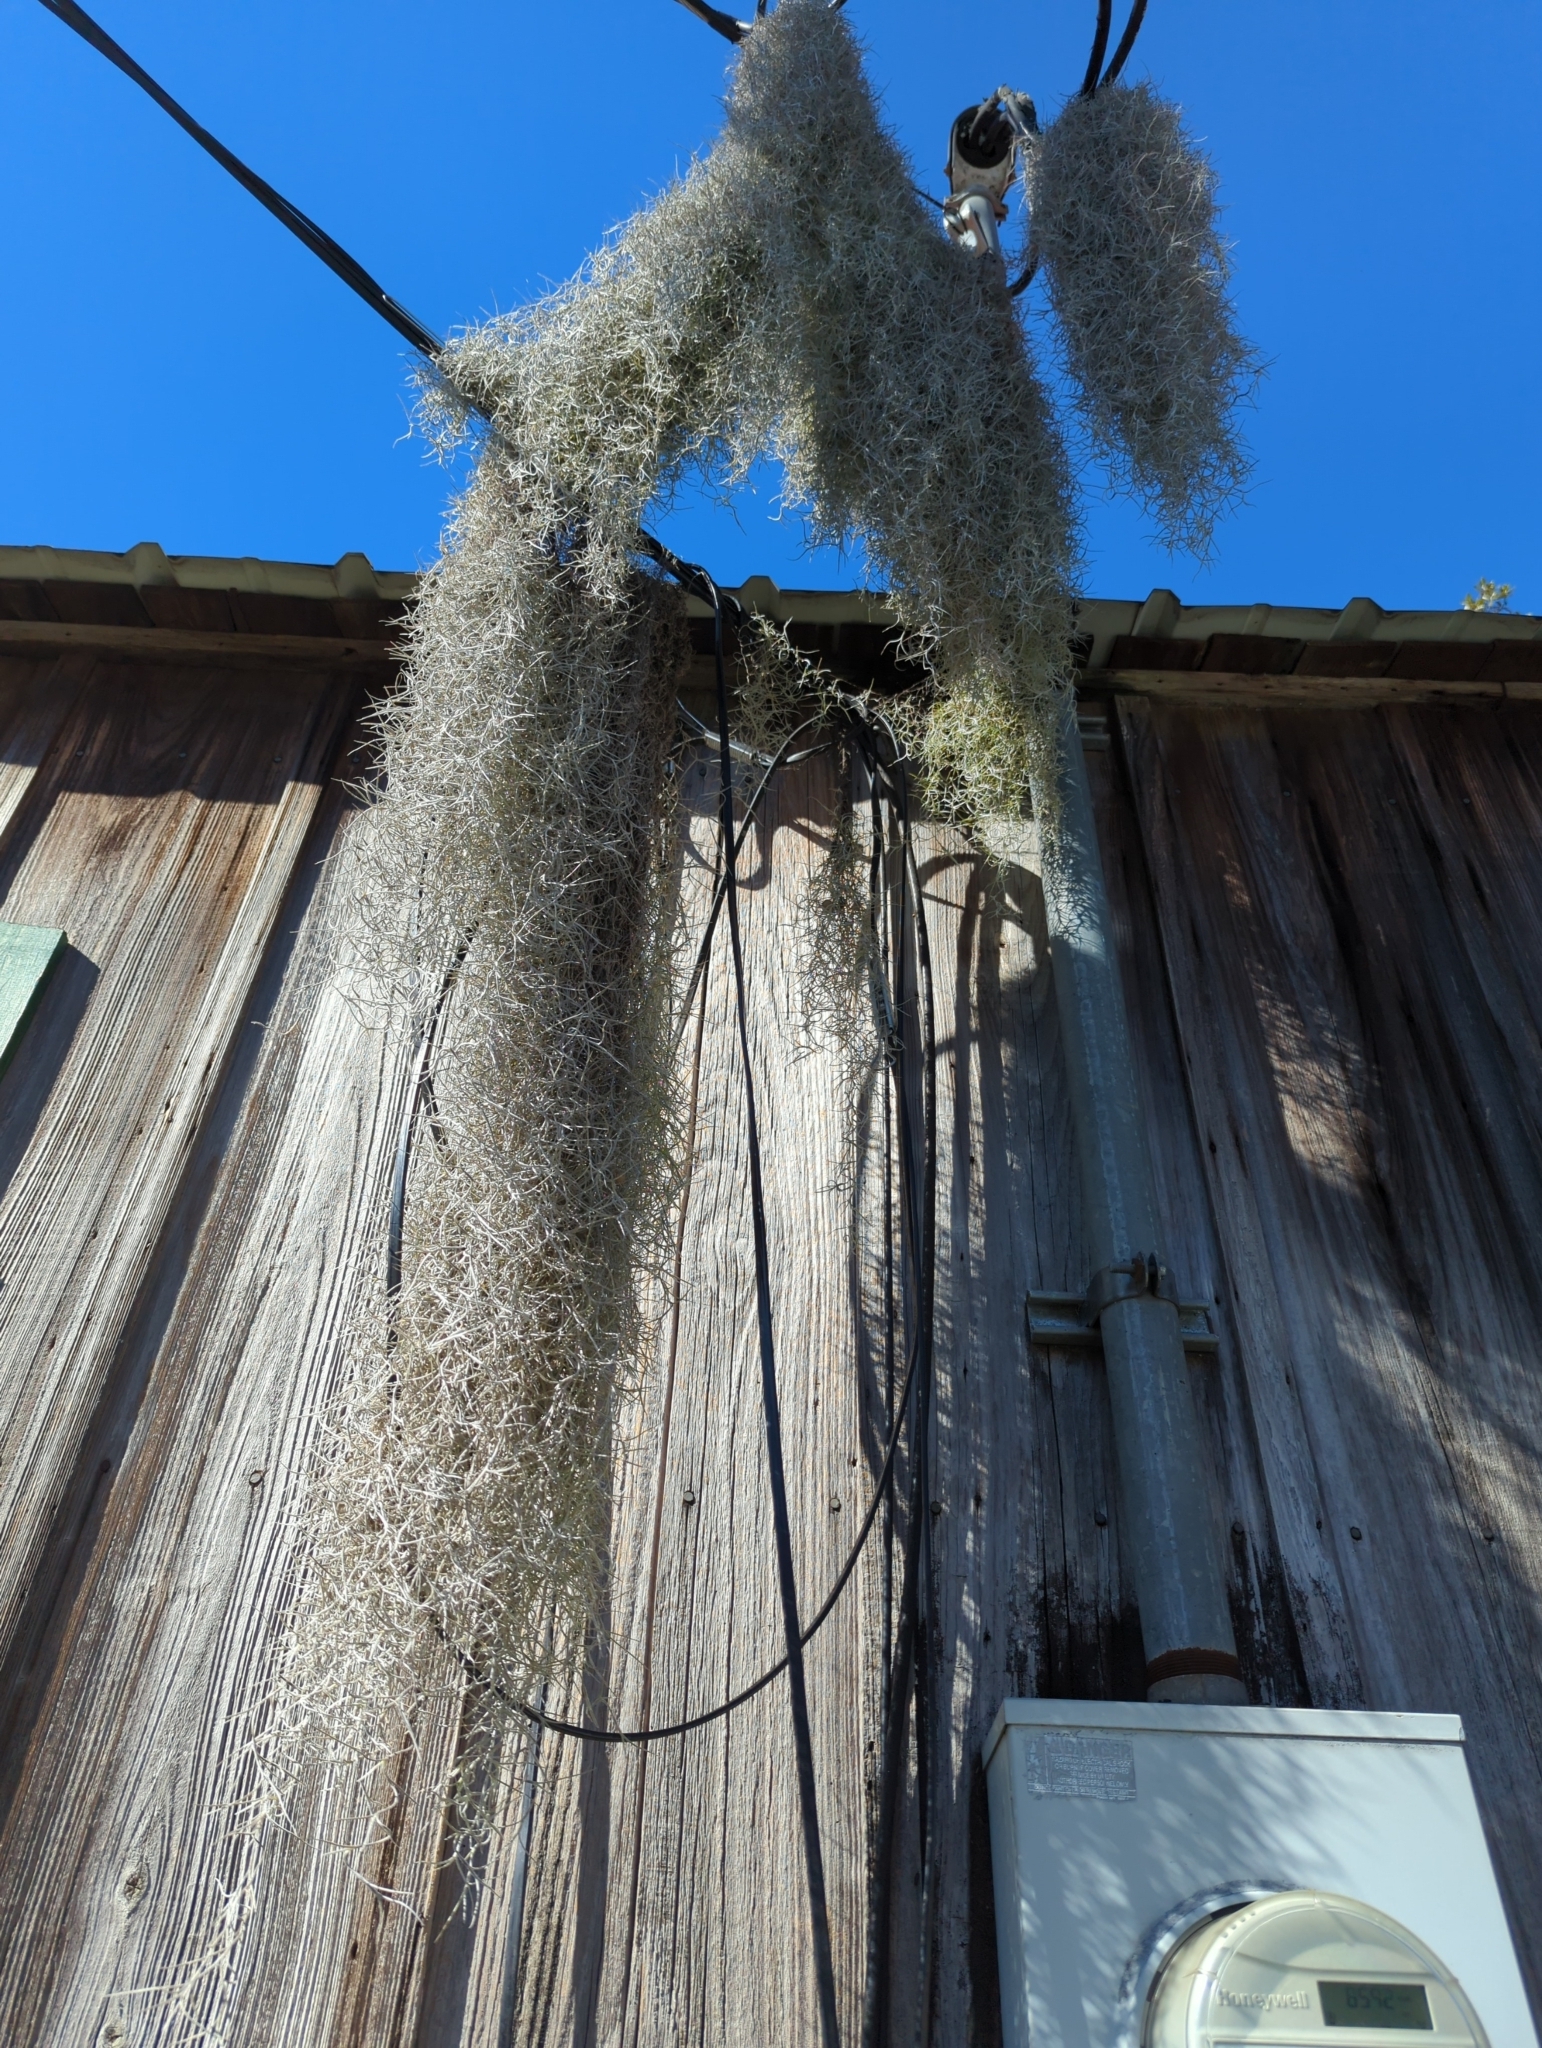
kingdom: Plantae
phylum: Tracheophyta
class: Liliopsida
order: Poales
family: Bromeliaceae
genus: Tillandsia
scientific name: Tillandsia usneoides
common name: Spanish moss
